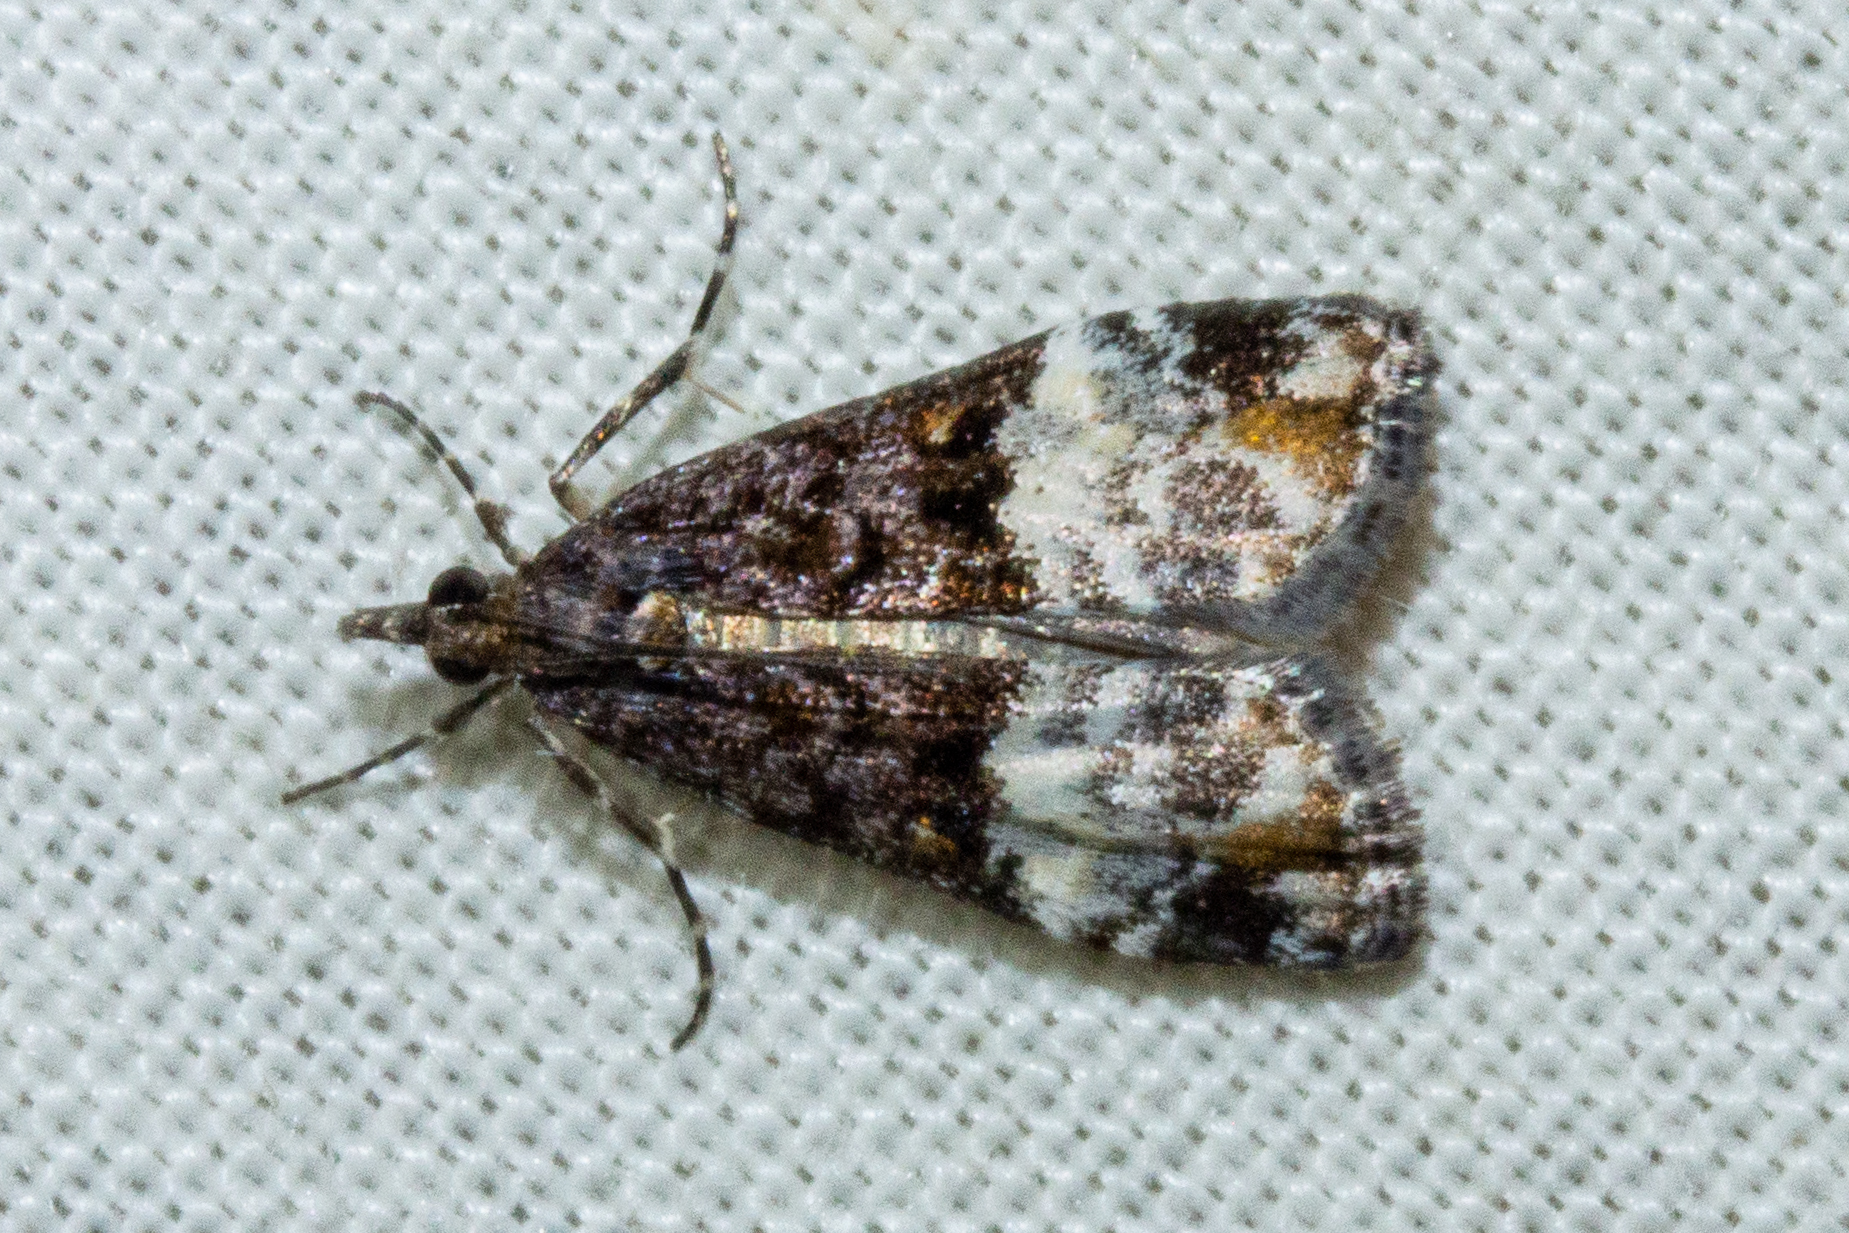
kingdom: Animalia
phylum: Arthropoda
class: Insecta
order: Lepidoptera
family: Crambidae
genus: Scoparia
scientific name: Scoparia minusculalis
